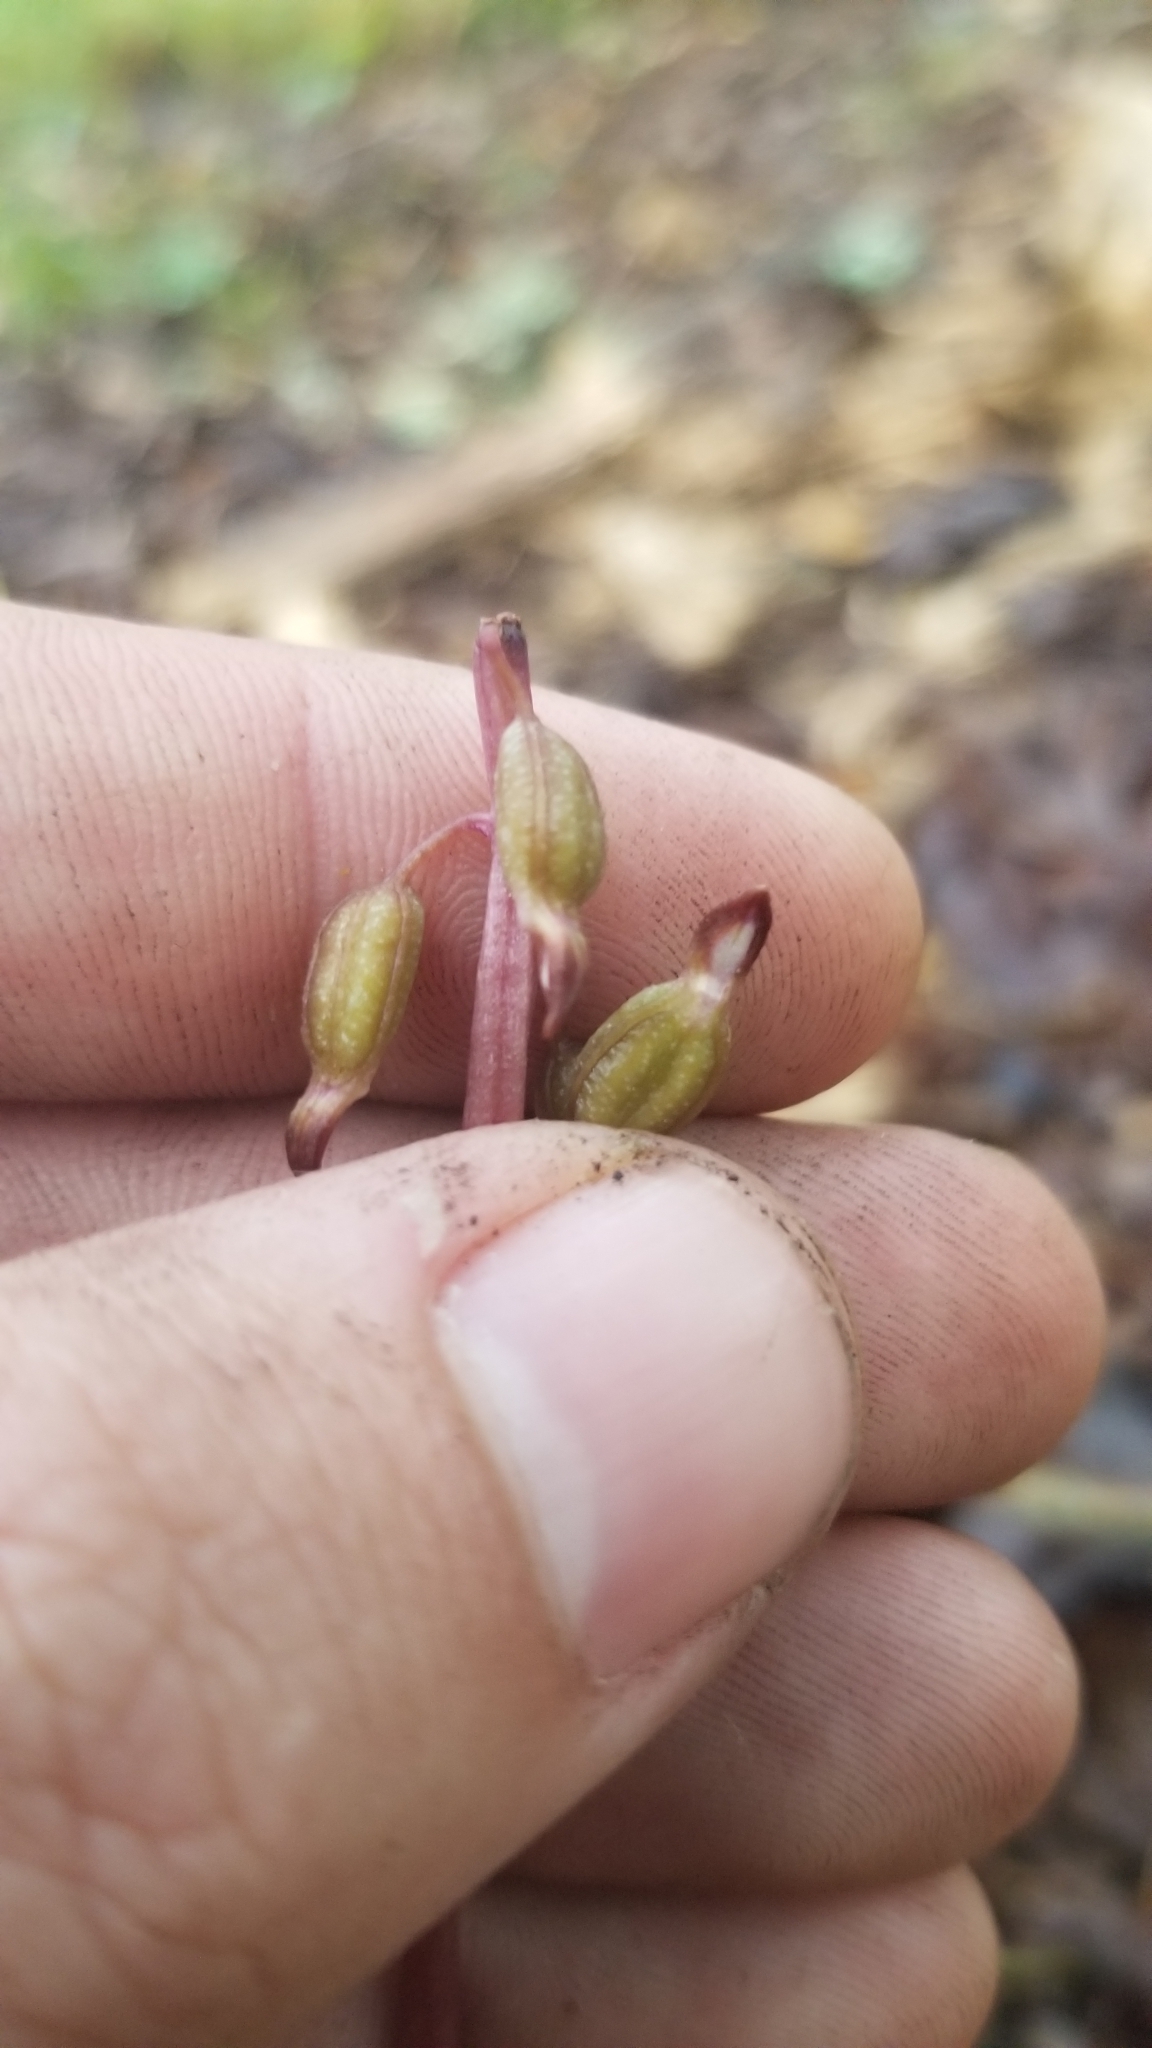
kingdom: Plantae
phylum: Tracheophyta
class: Liliopsida
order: Asparagales
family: Orchidaceae
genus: Corallorhiza
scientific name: Corallorhiza odontorhiza
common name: Autumn coralroot
